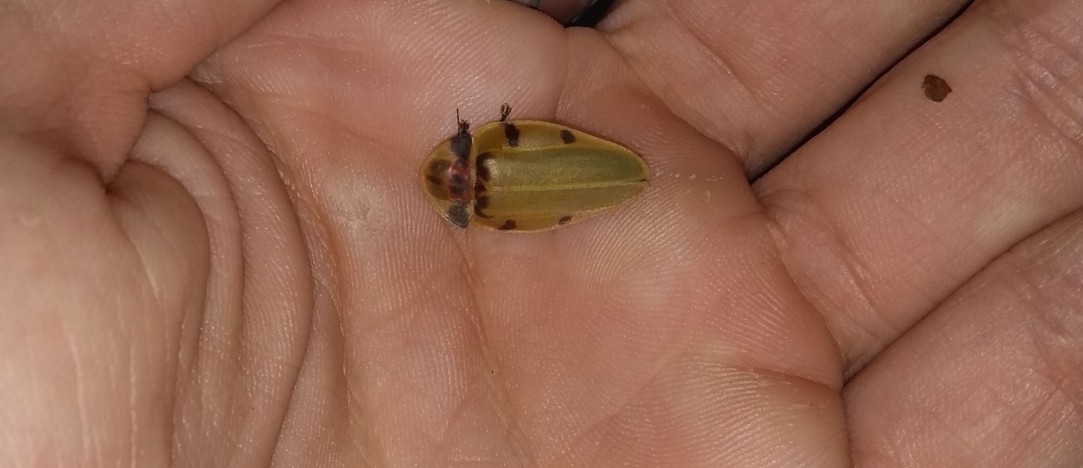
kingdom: Animalia
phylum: Arthropoda
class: Insecta
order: Coleoptera
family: Lampyridae
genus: Aspisoma
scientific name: Aspisoma sticticum
